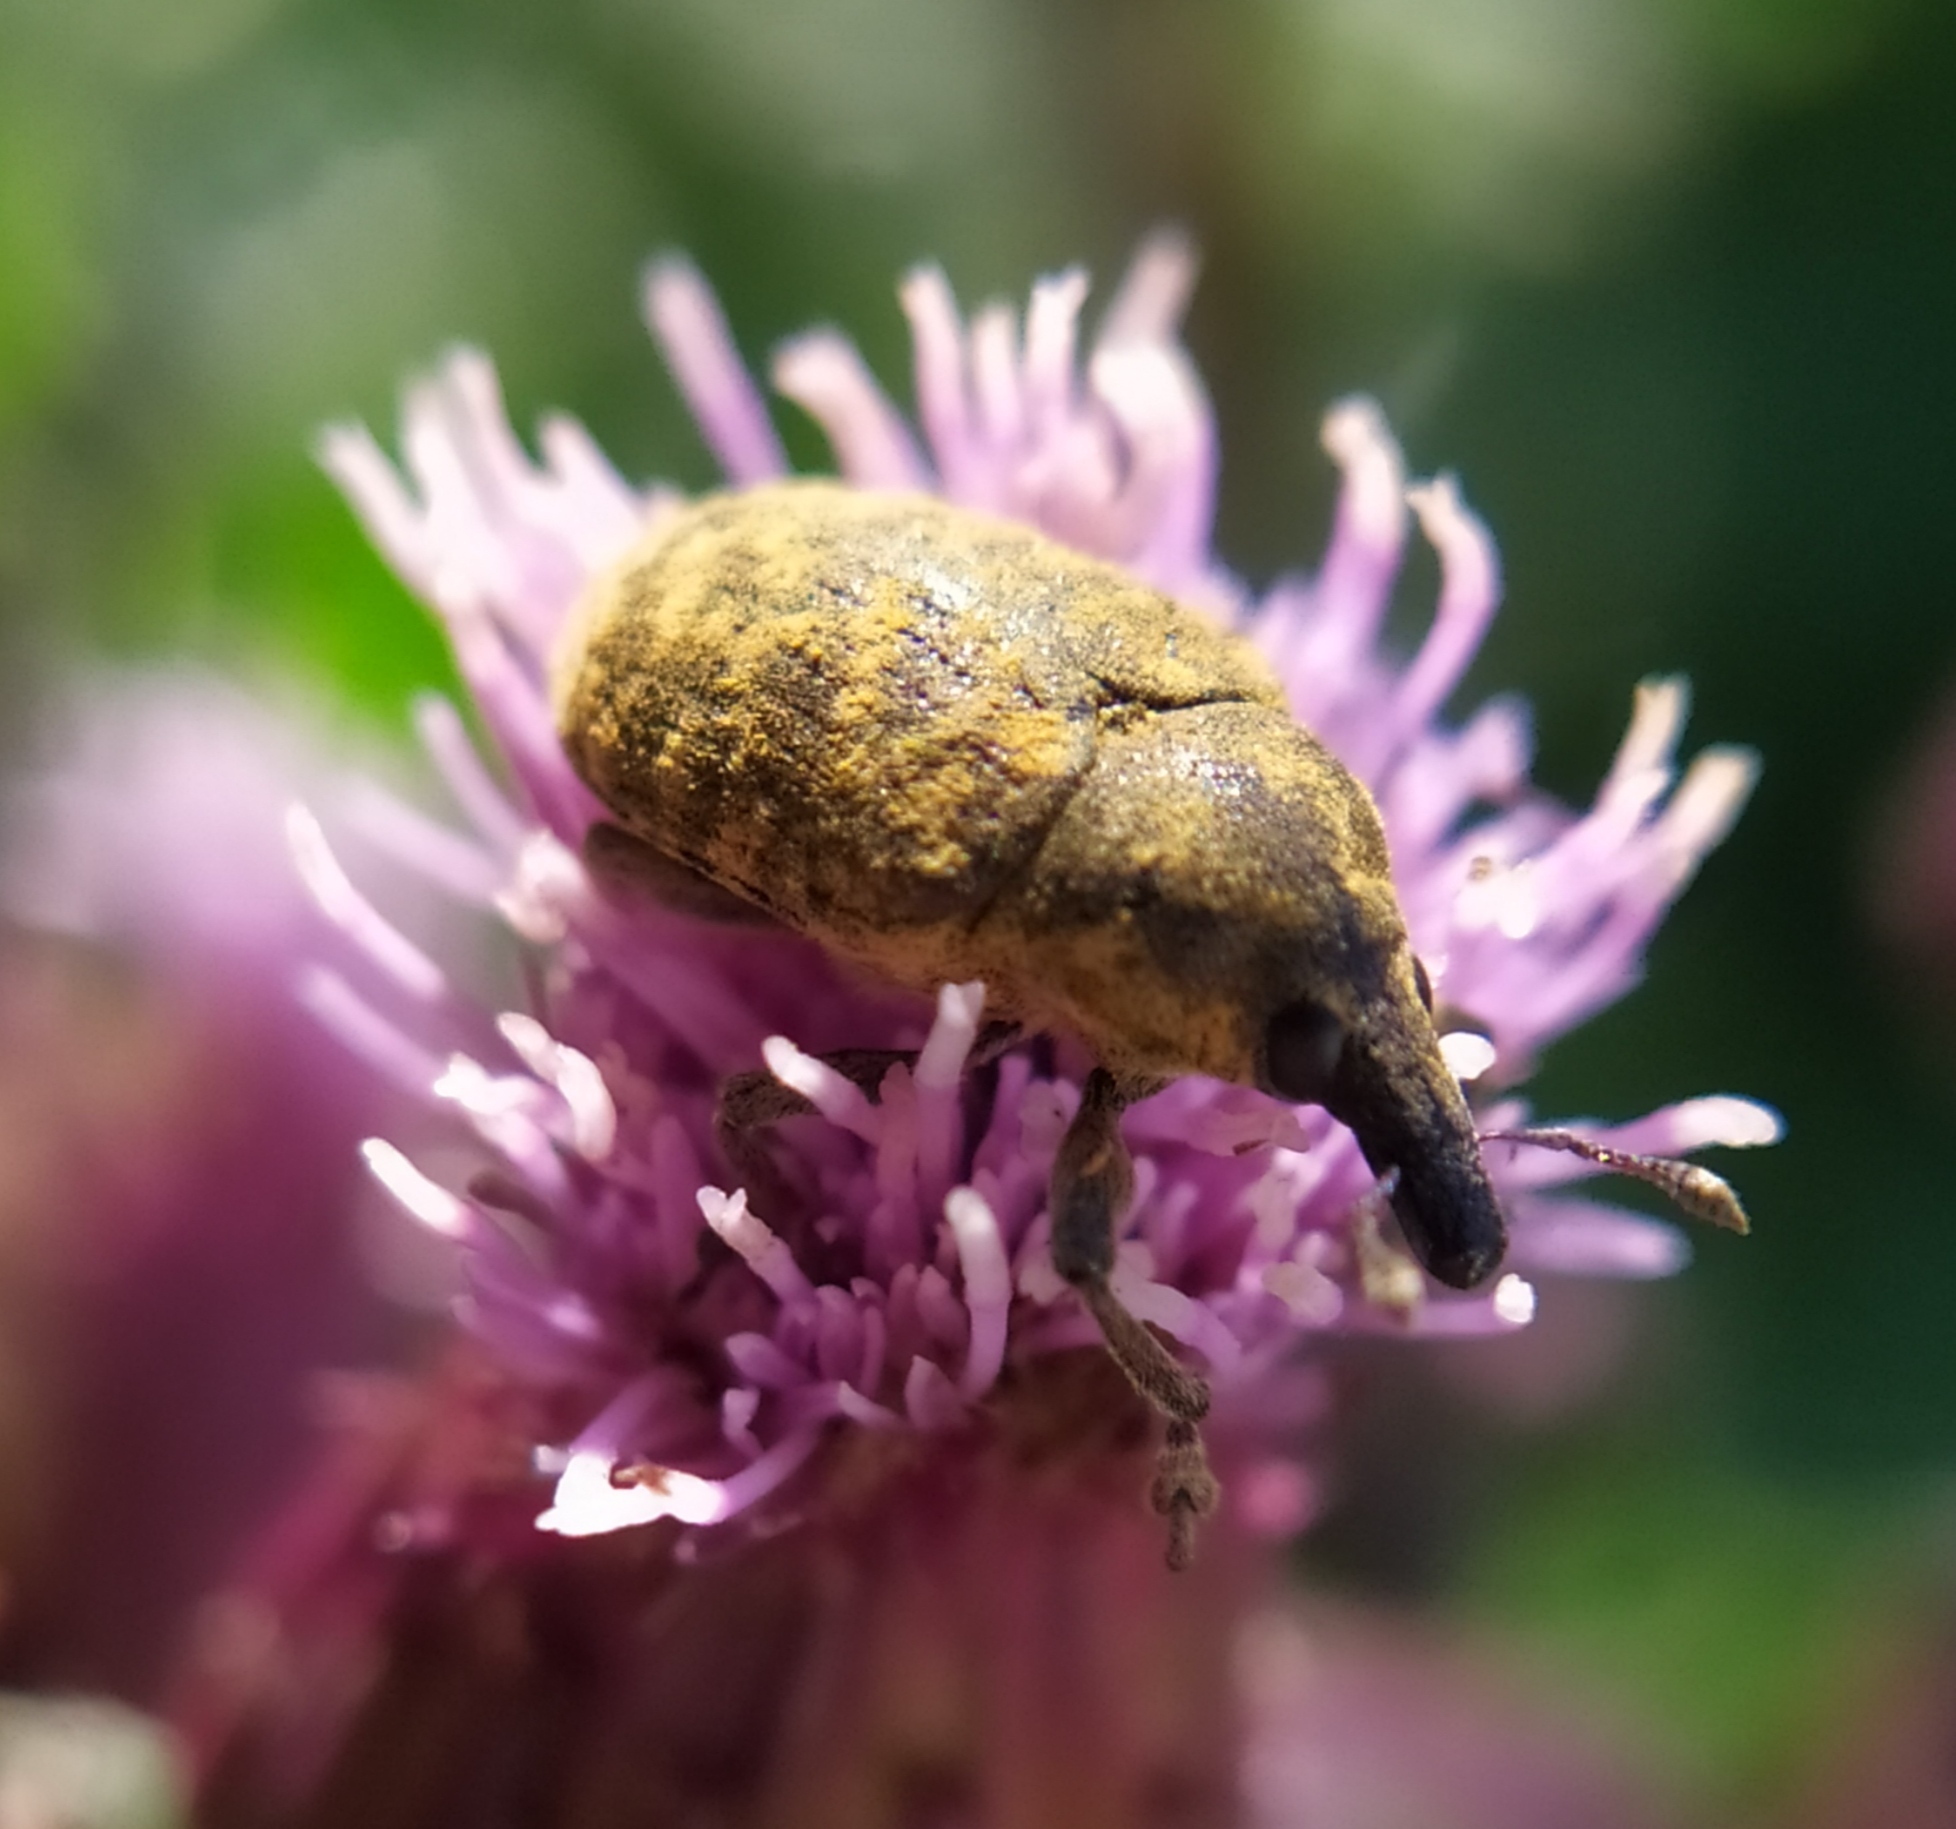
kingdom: Animalia
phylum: Arthropoda
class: Insecta
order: Coleoptera
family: Curculionidae
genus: Larinus
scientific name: Larinus turbinatus
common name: Weevil
